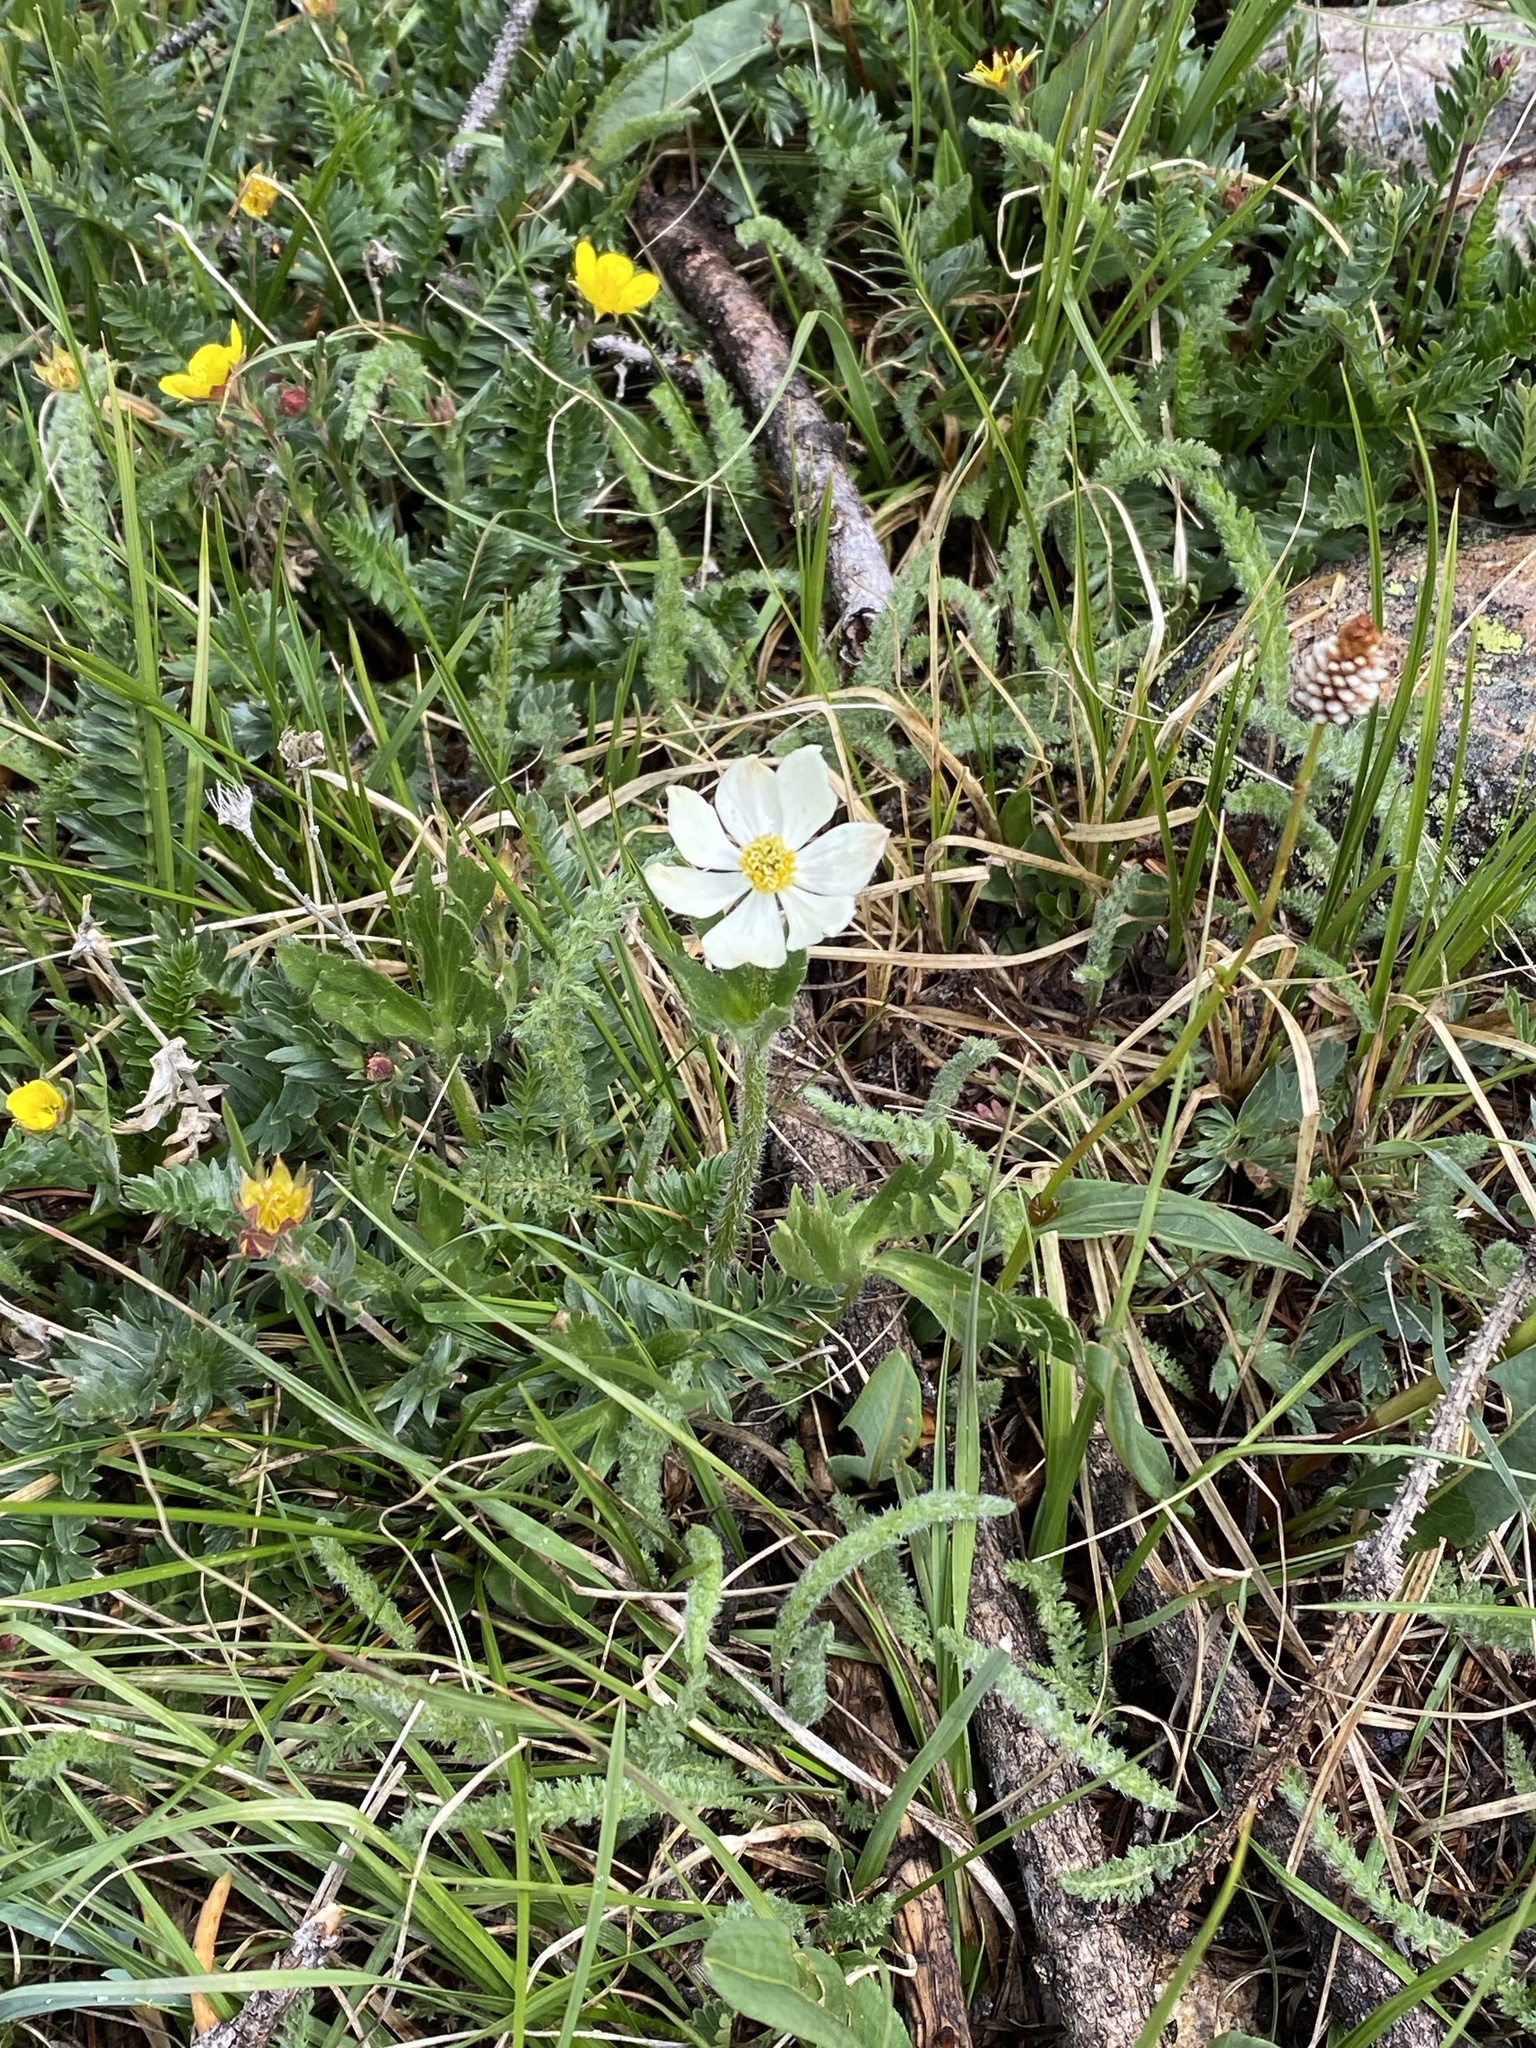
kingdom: Plantae
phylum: Tracheophyta
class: Magnoliopsida
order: Ranunculales
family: Ranunculaceae
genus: Anemonastrum
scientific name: Anemonastrum narcissiflorum
